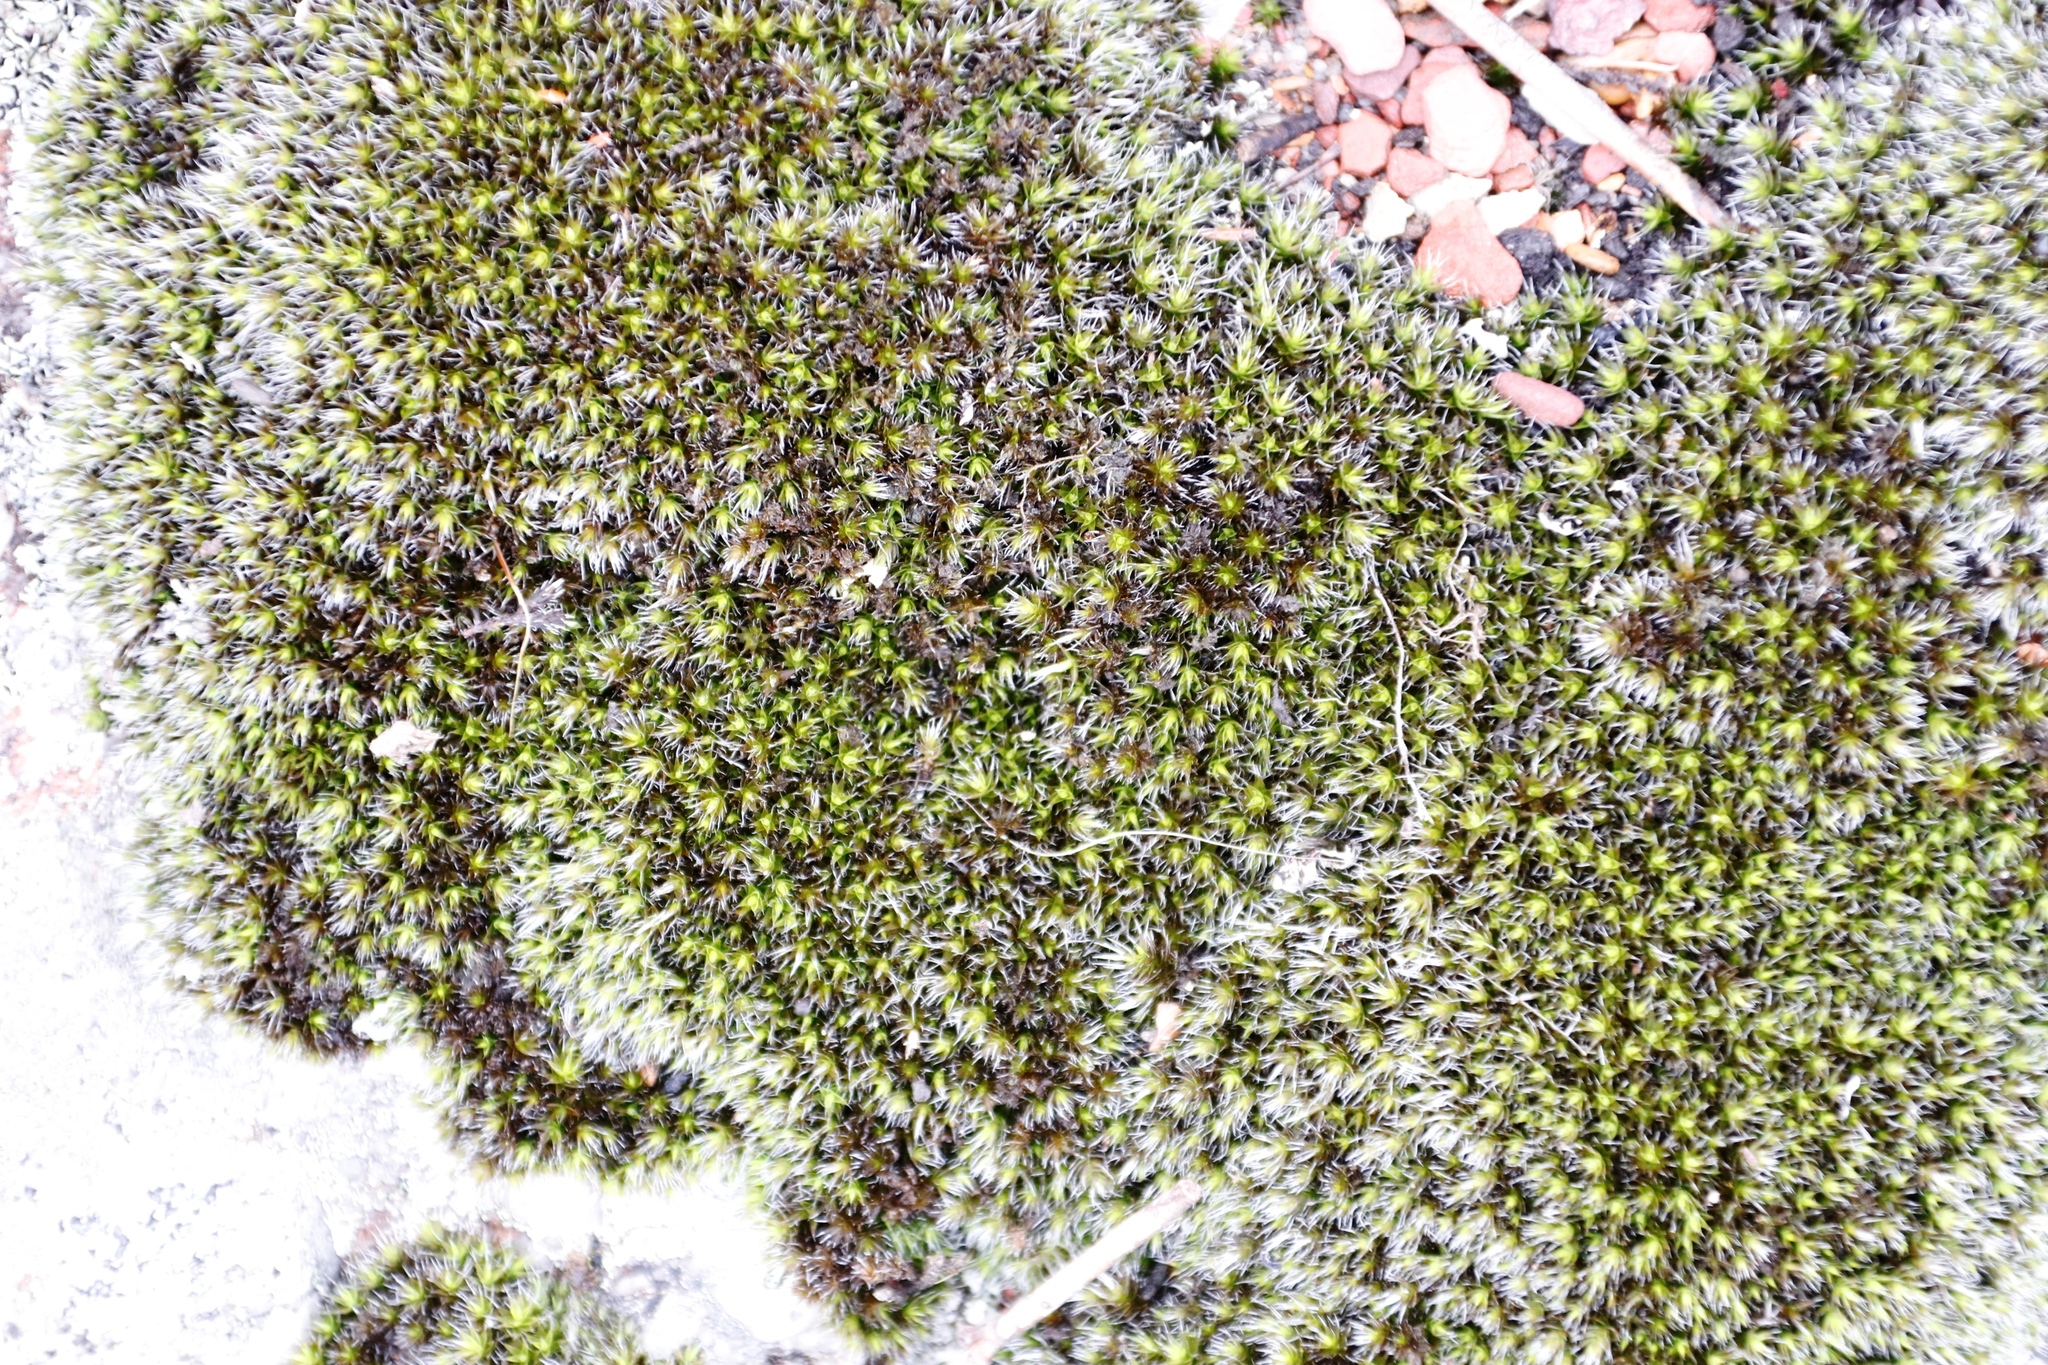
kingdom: Plantae
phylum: Bryophyta
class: Bryopsida
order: Grimmiales
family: Grimmiaceae
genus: Grimmia
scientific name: Grimmia laevigata
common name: Hoary grimmia
